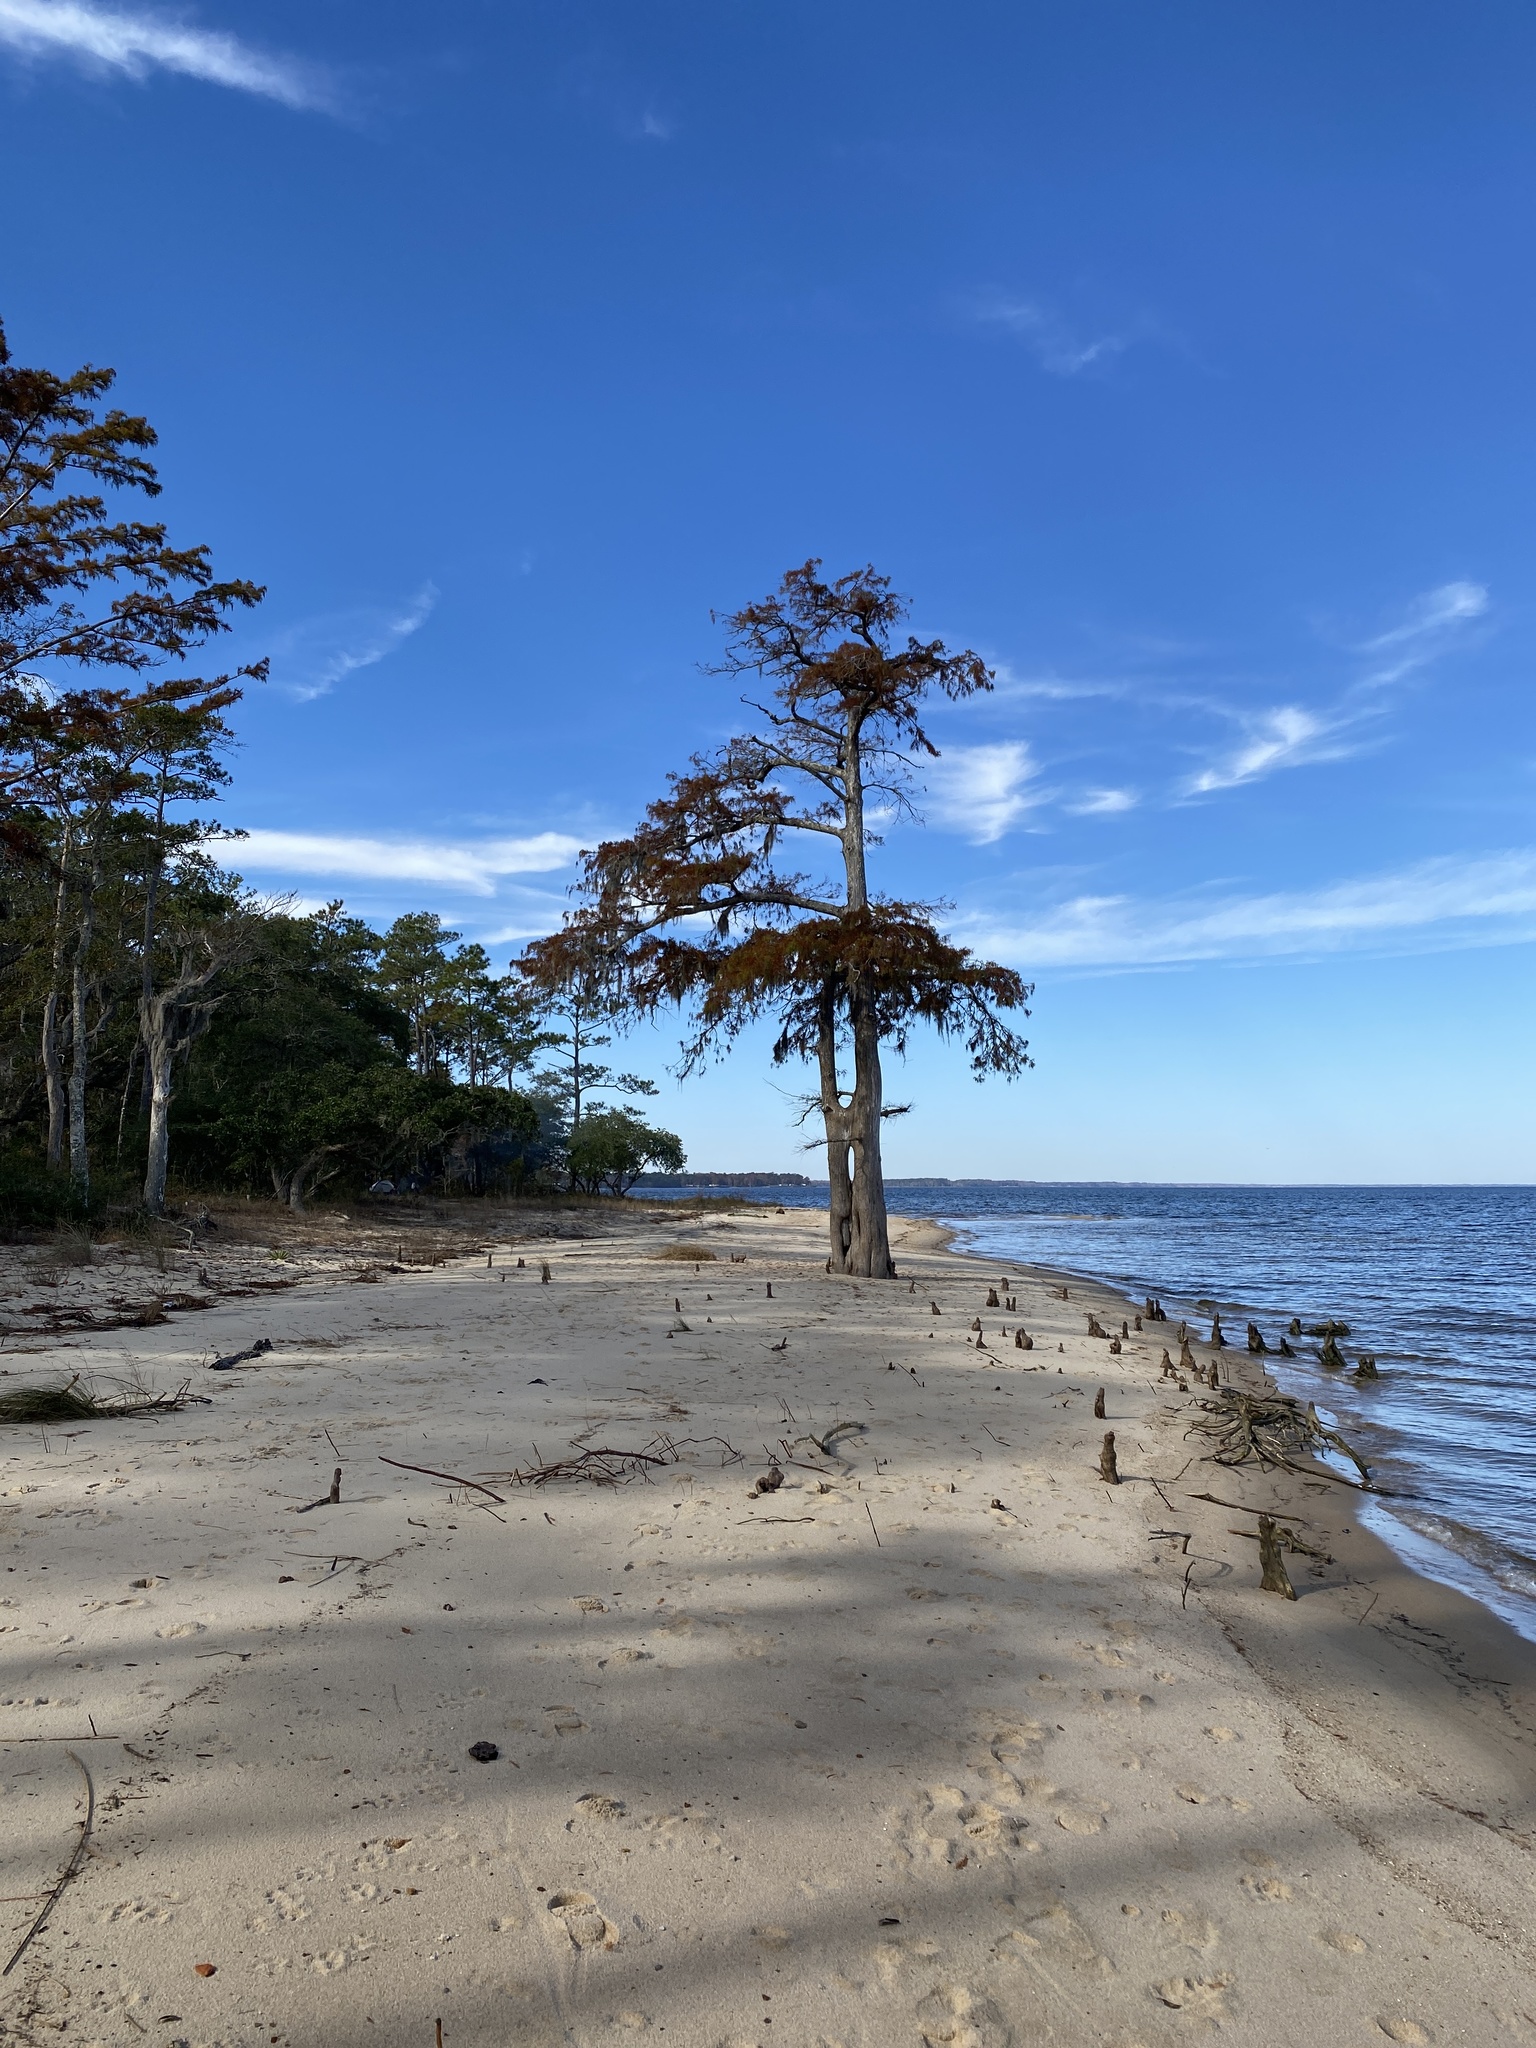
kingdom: Plantae
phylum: Tracheophyta
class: Pinopsida
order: Pinales
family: Cupressaceae
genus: Taxodium
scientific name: Taxodium distichum
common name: Bald cypress
